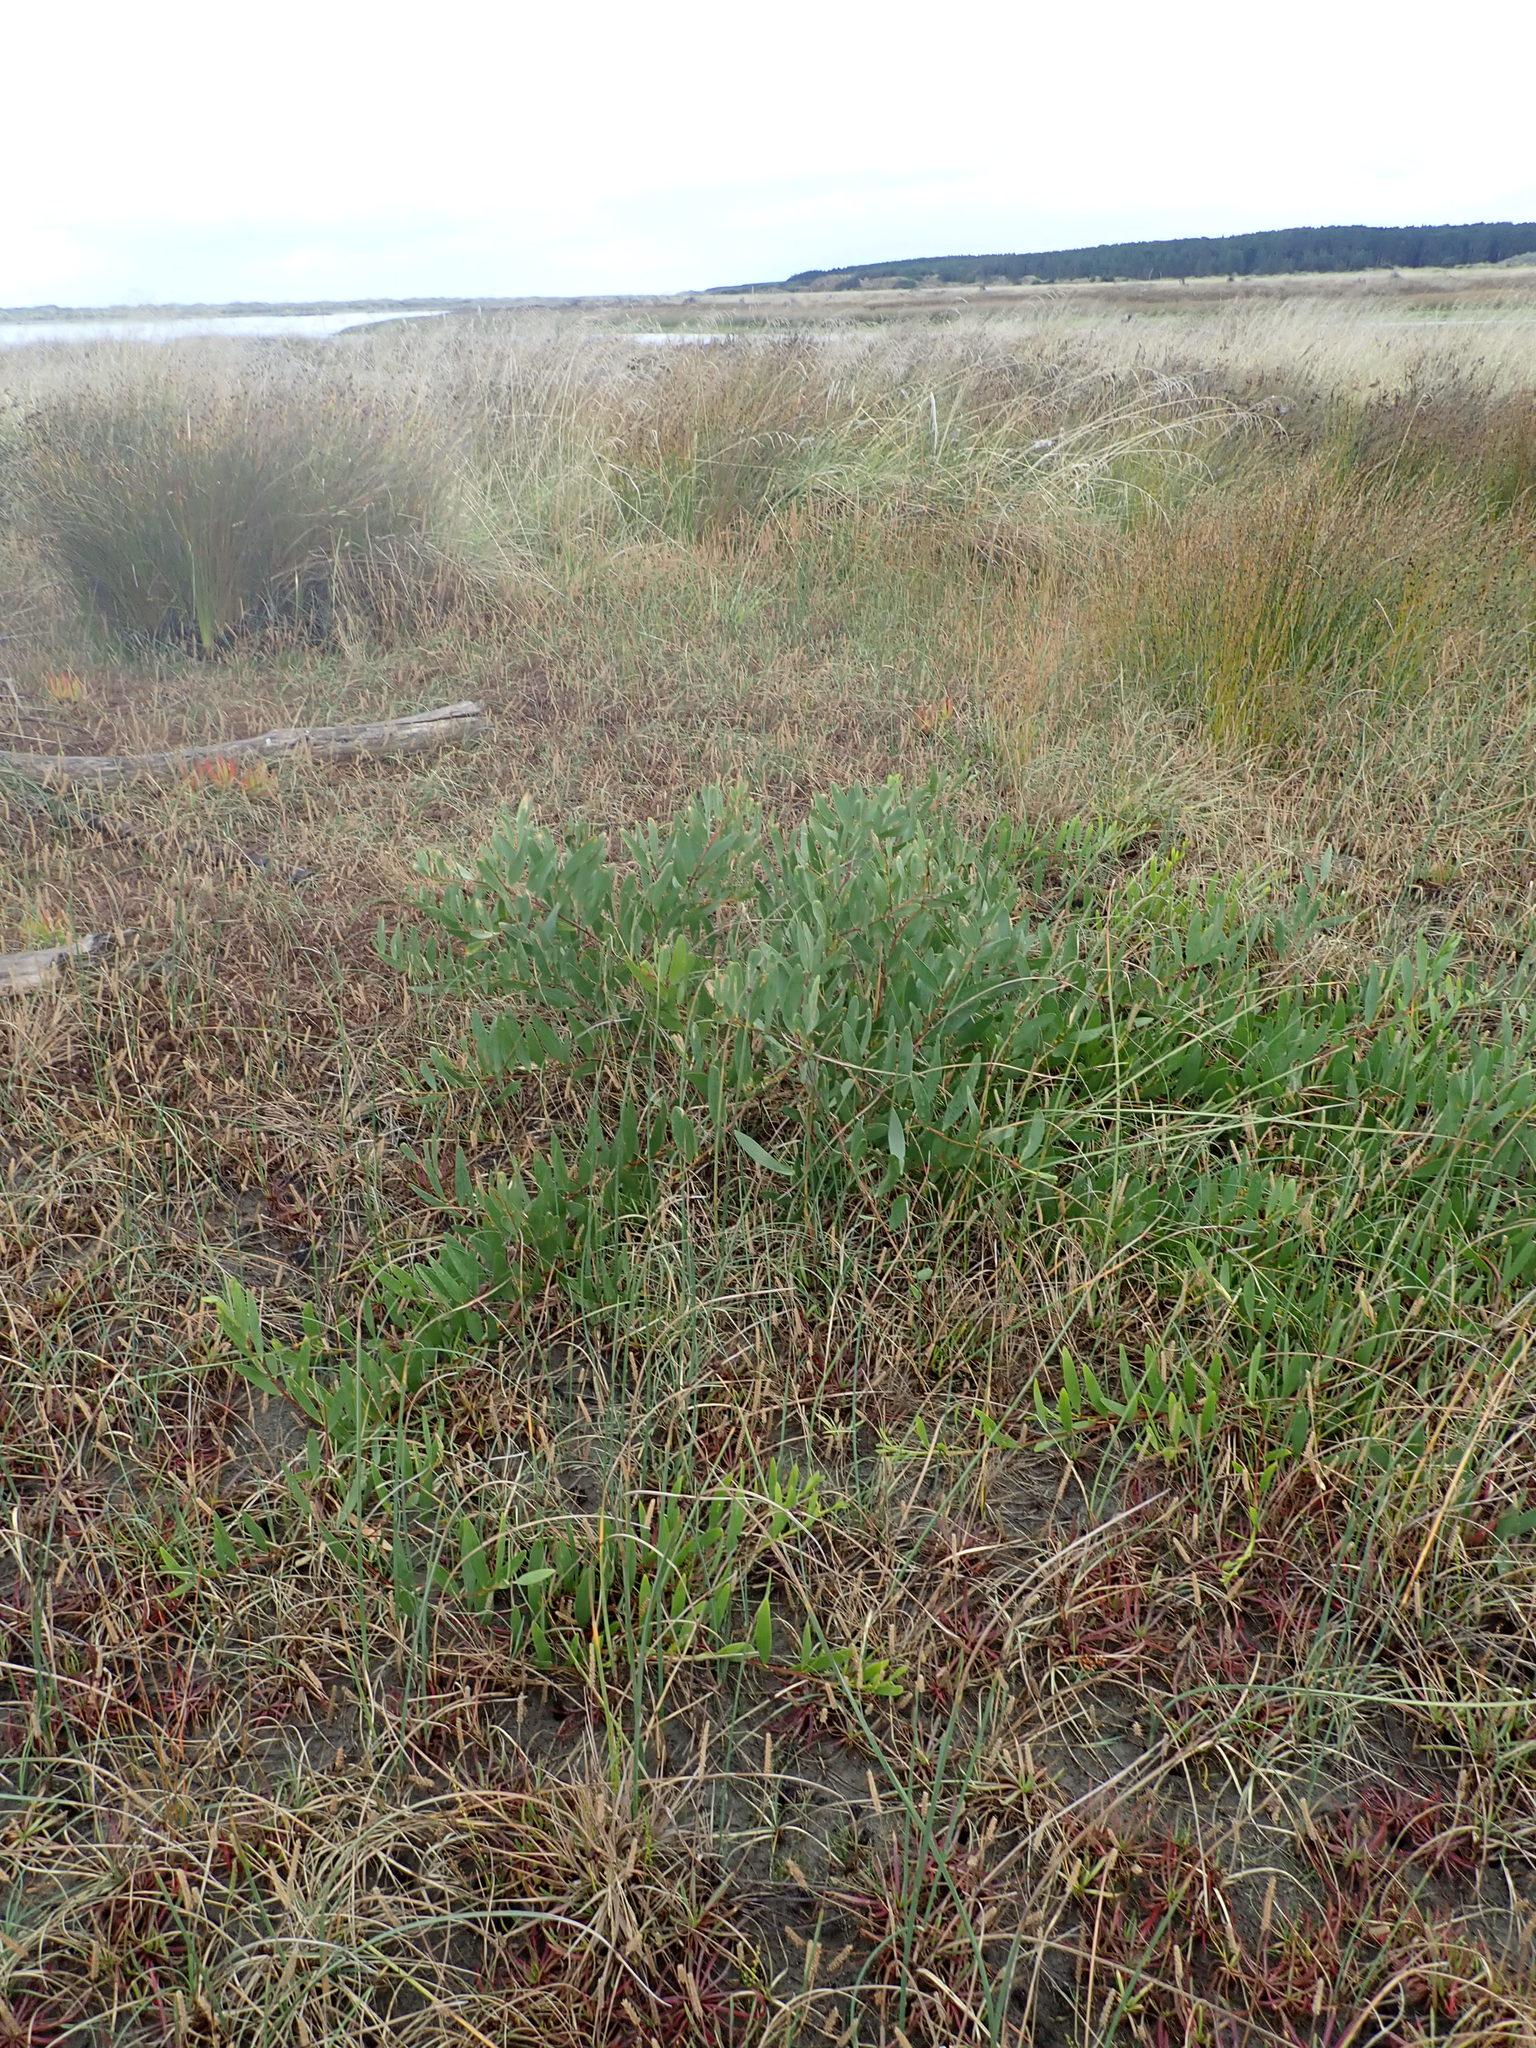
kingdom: Plantae
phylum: Tracheophyta
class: Magnoliopsida
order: Fabales
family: Fabaceae
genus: Acacia
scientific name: Acacia longifolia
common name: Sydney golden wattle
